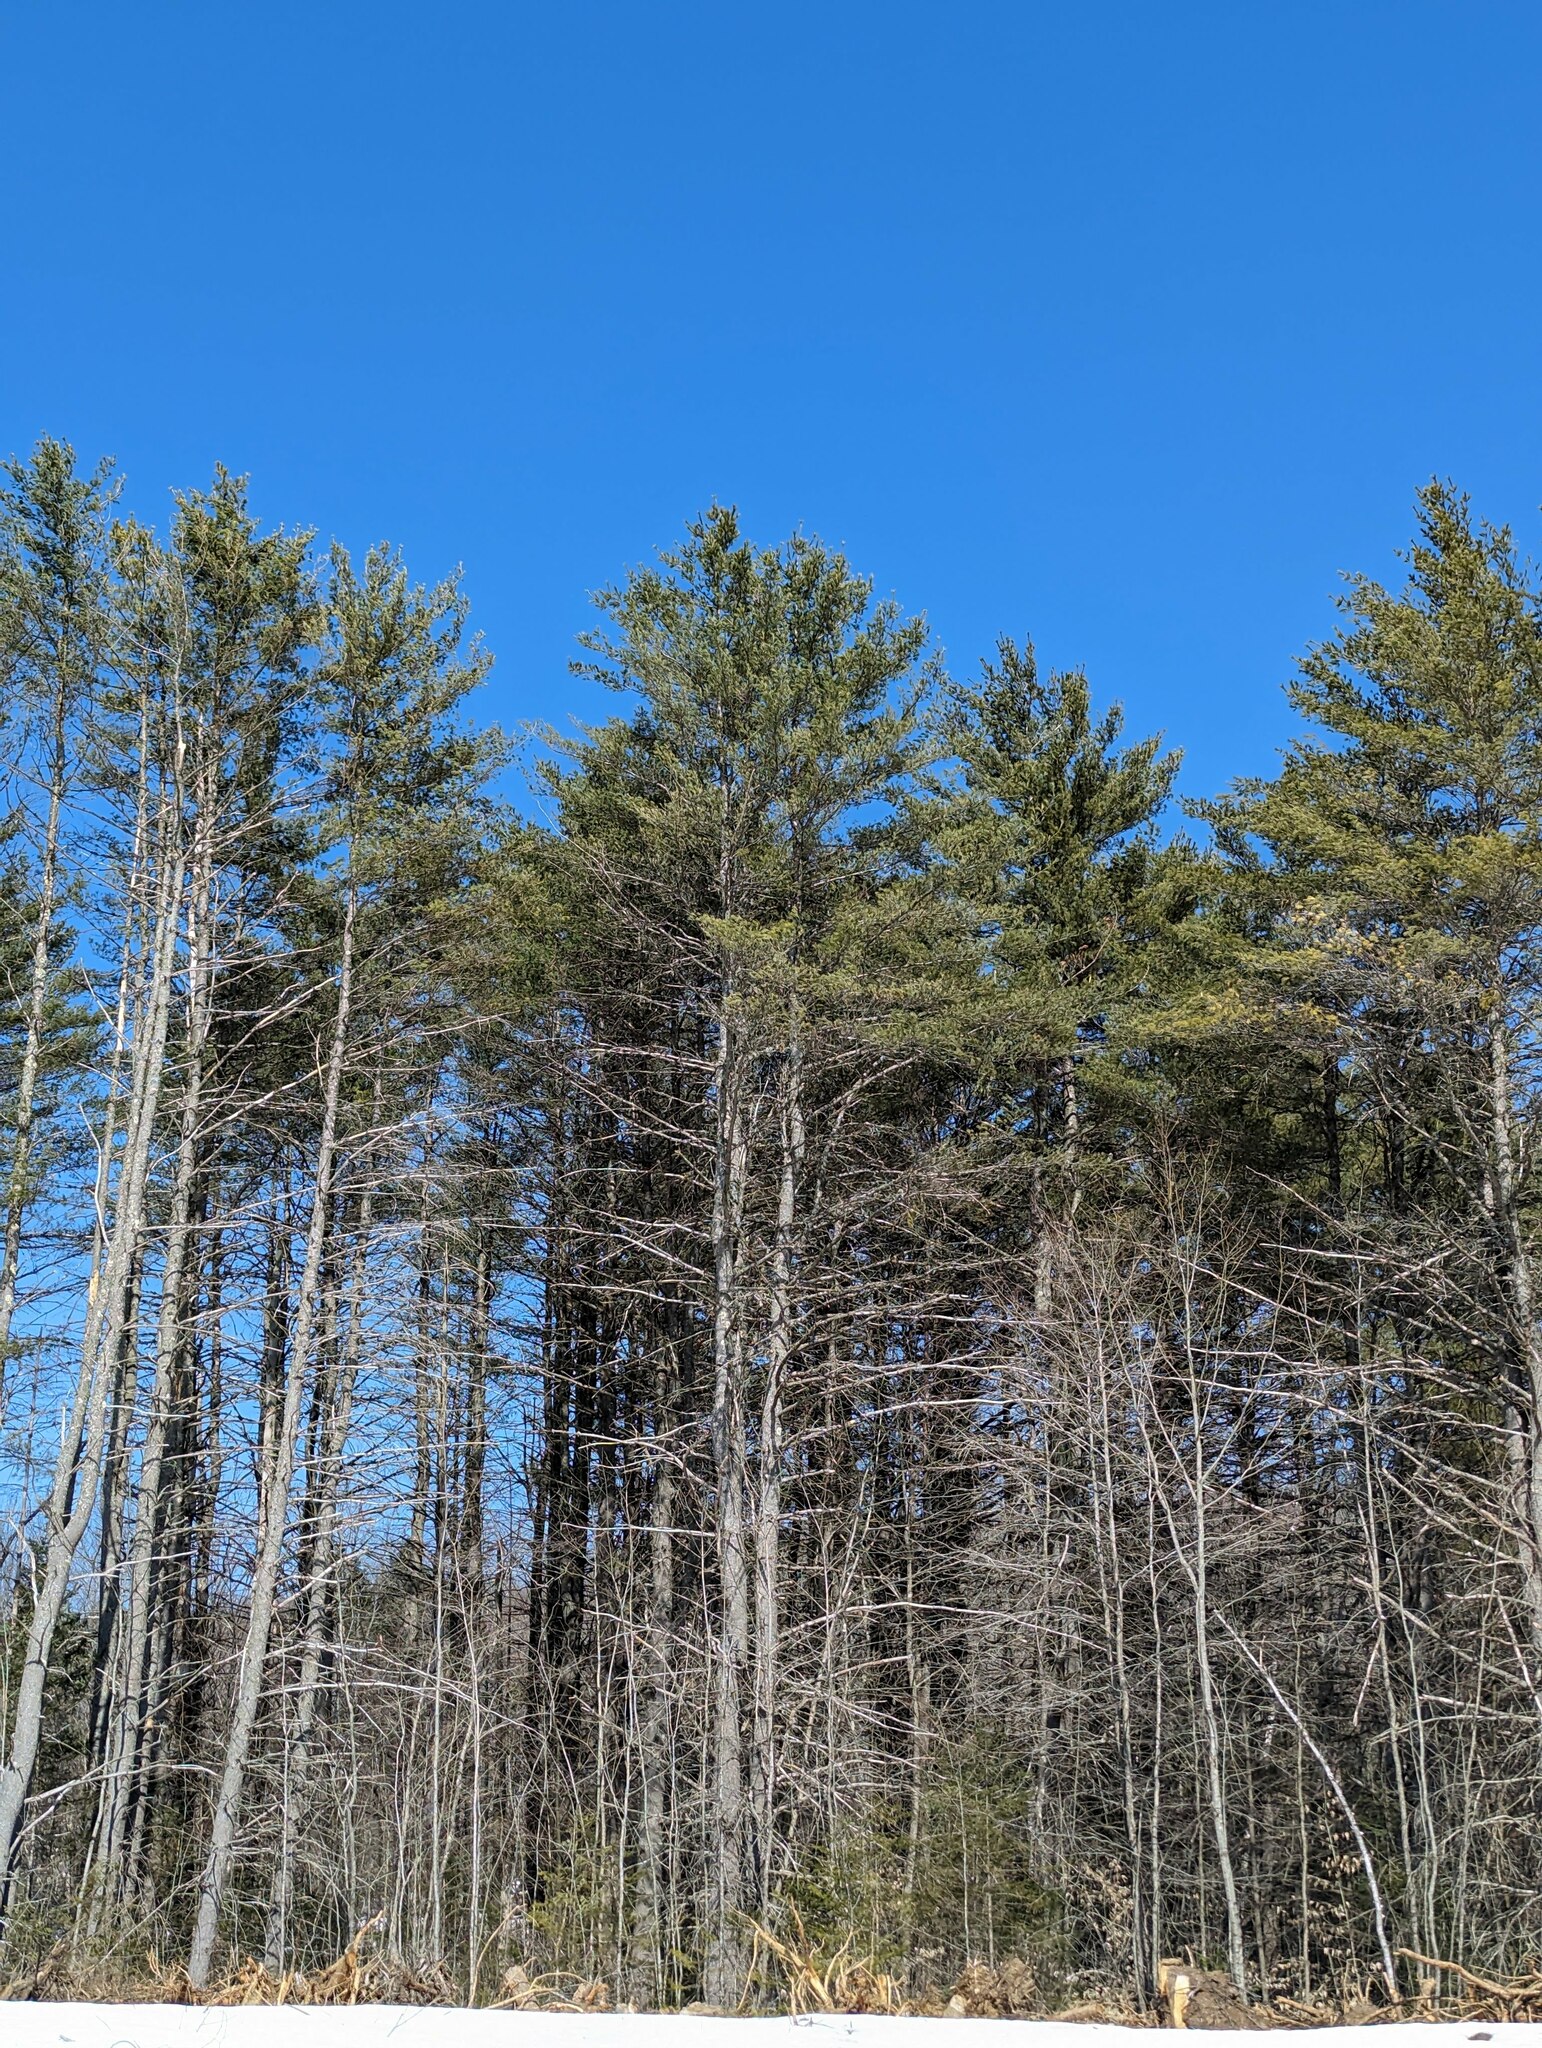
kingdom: Plantae
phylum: Tracheophyta
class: Pinopsida
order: Pinales
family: Pinaceae
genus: Pinus
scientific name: Pinus strobus
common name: Weymouth pine
